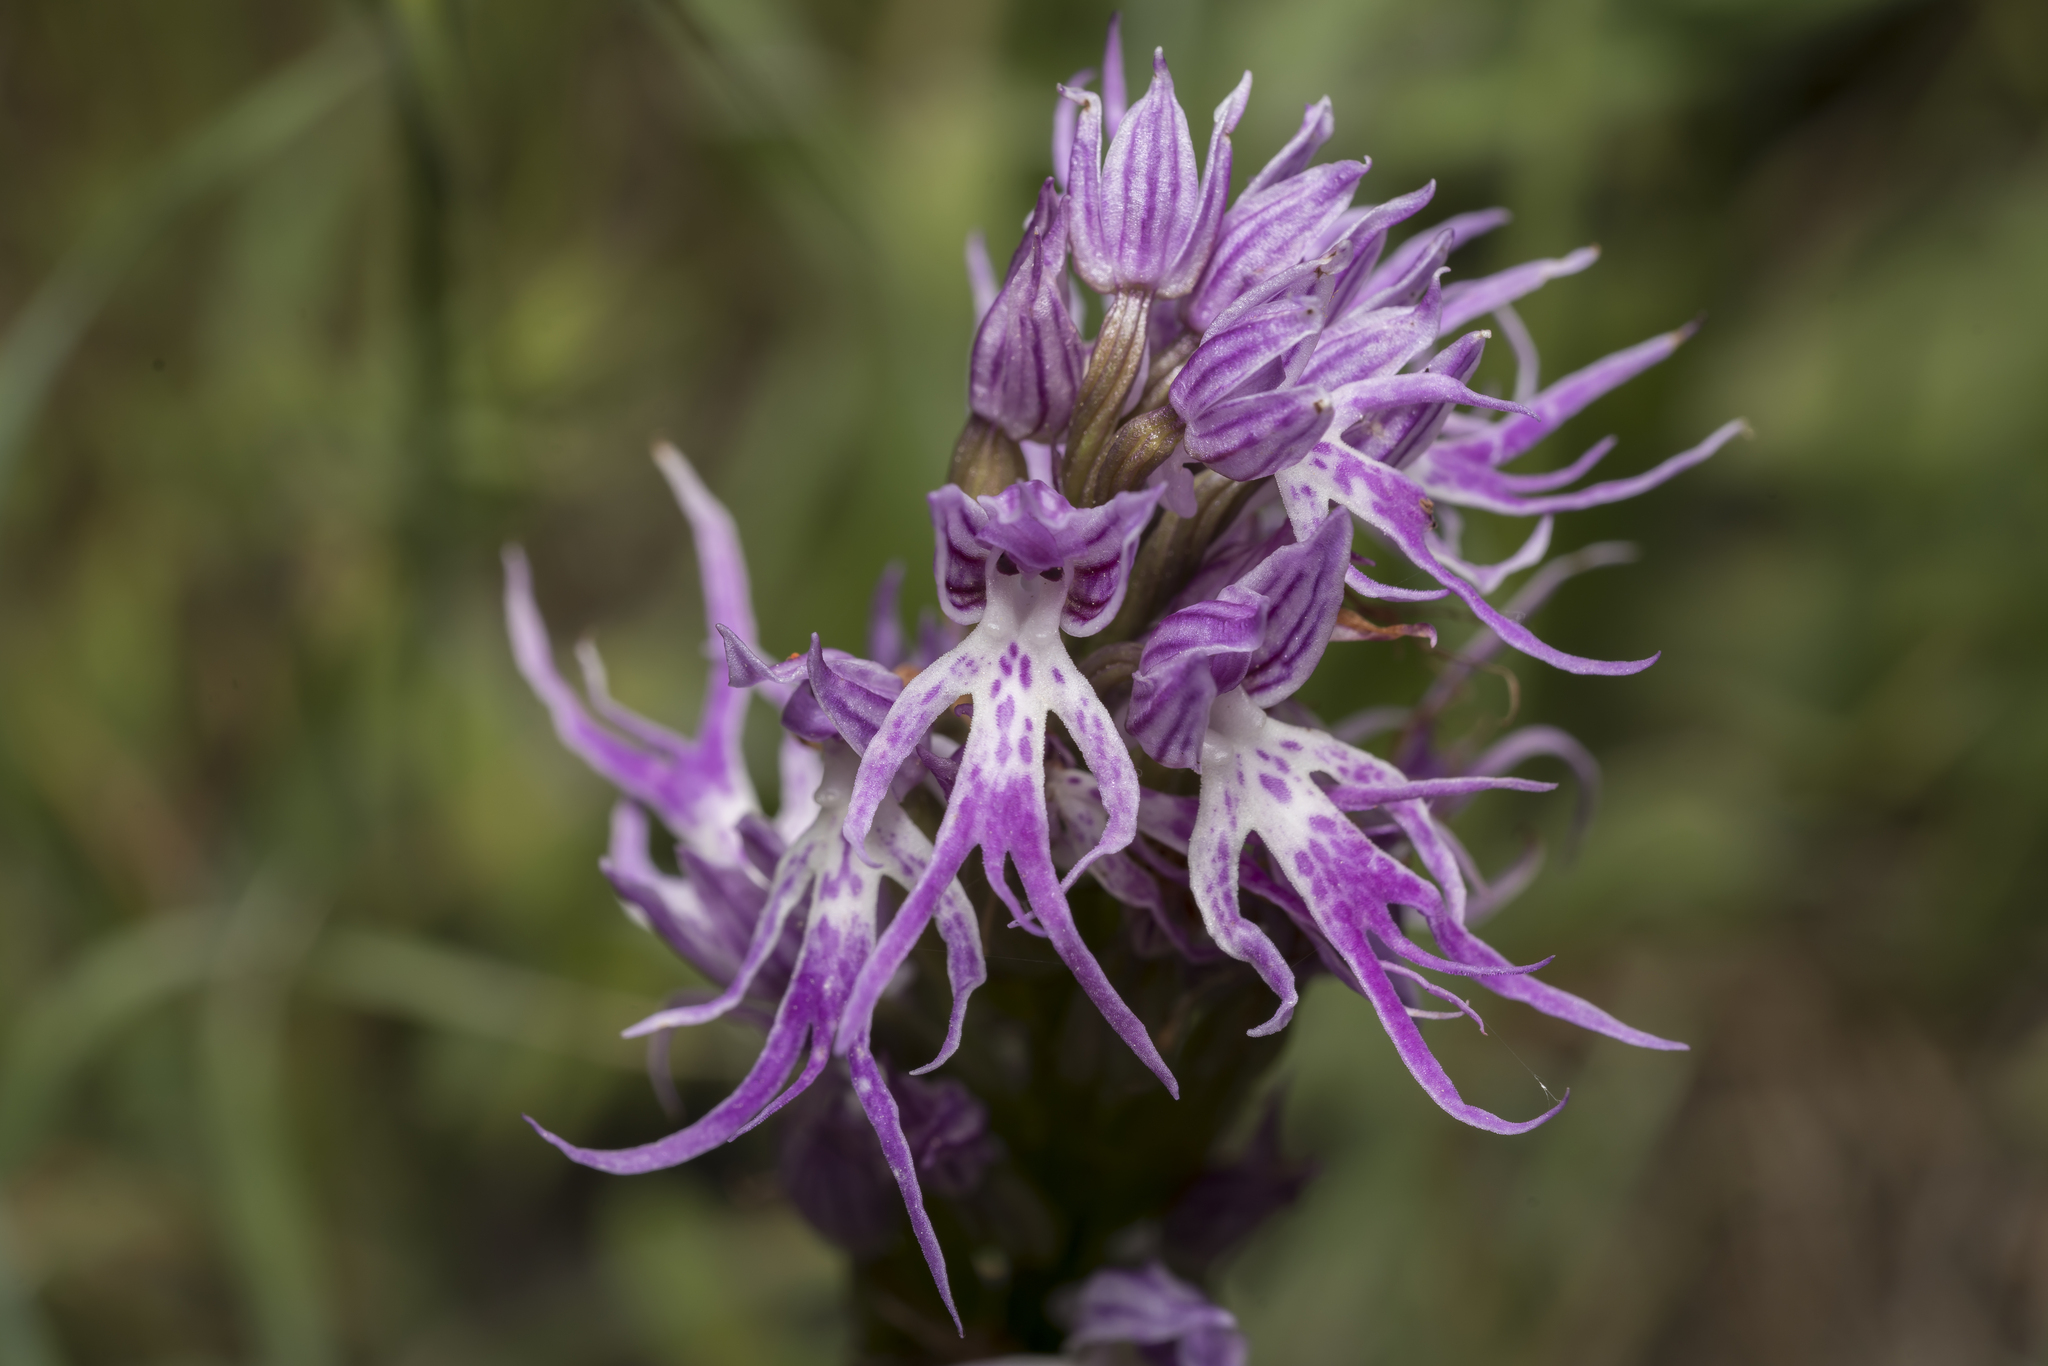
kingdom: Plantae
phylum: Tracheophyta
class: Liliopsida
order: Asparagales
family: Orchidaceae
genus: Orchis
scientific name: Orchis italica
